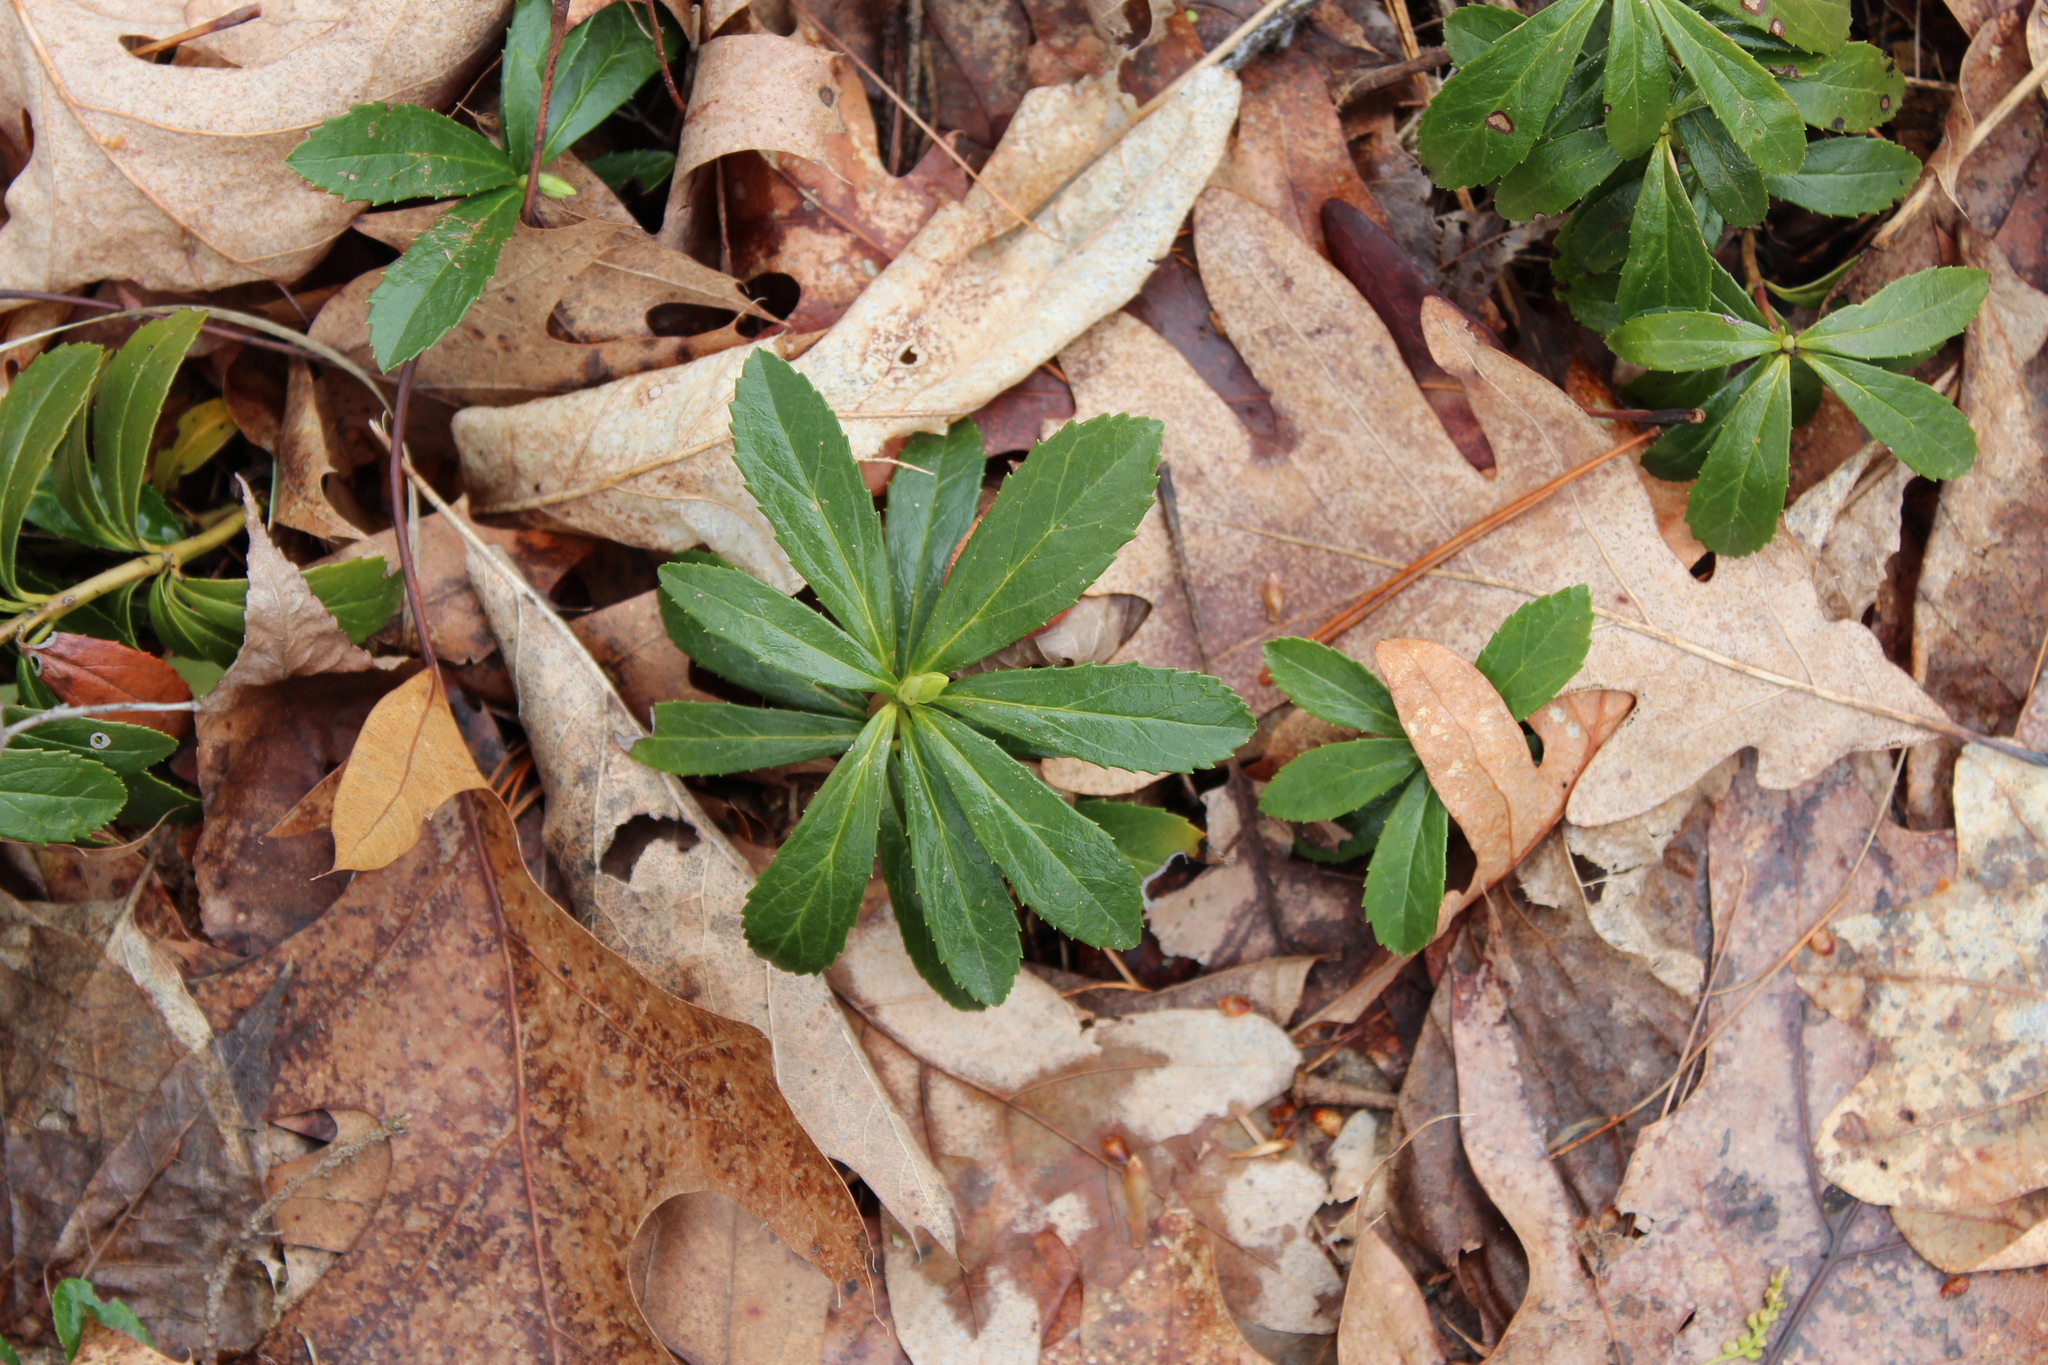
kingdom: Plantae
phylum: Tracheophyta
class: Magnoliopsida
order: Ericales
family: Ericaceae
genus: Chimaphila
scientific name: Chimaphila umbellata
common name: Pipsissewa
